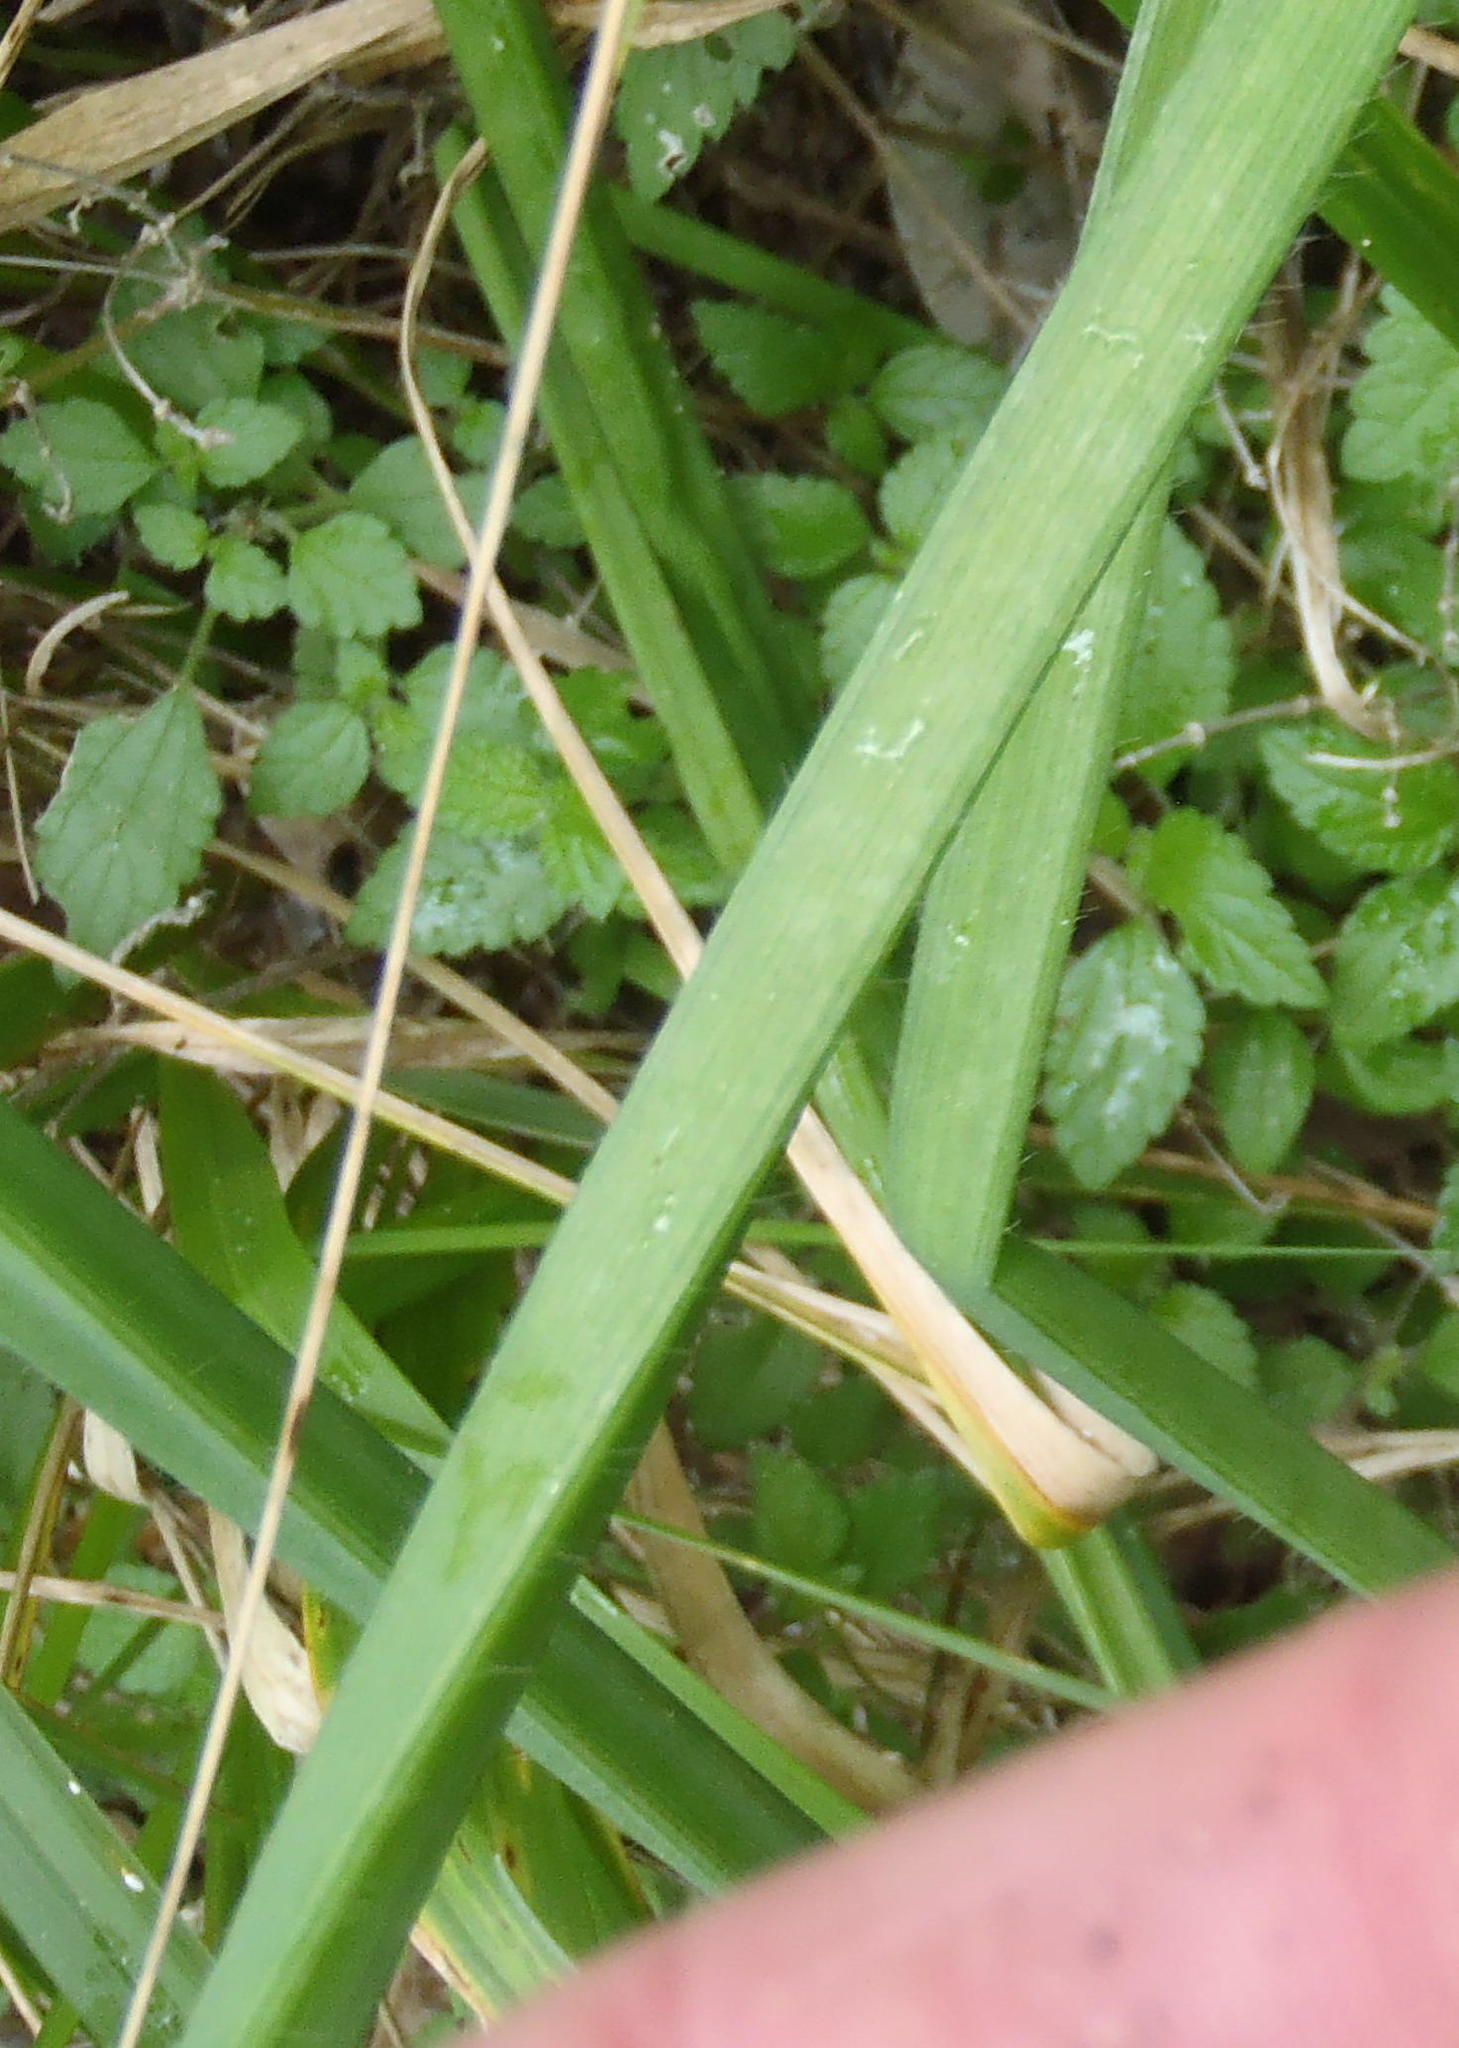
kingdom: Plantae
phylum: Tracheophyta
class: Liliopsida
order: Asparagales
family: Asphodelaceae
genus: Trachyandra
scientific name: Trachyandra ciliata
